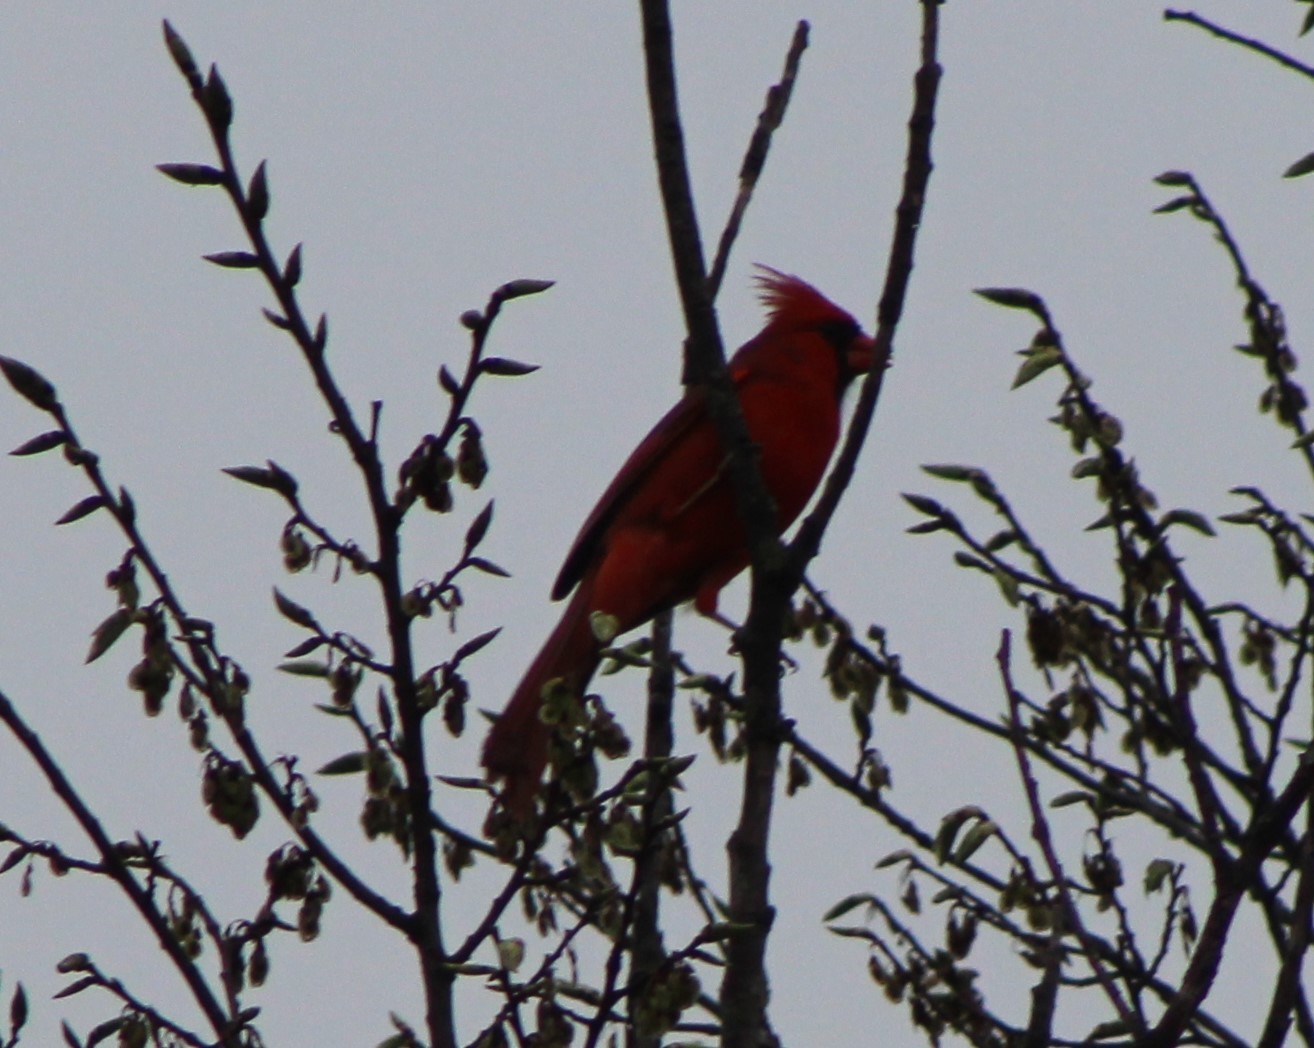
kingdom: Animalia
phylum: Chordata
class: Aves
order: Passeriformes
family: Cardinalidae
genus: Cardinalis
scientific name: Cardinalis cardinalis
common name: Northern cardinal
